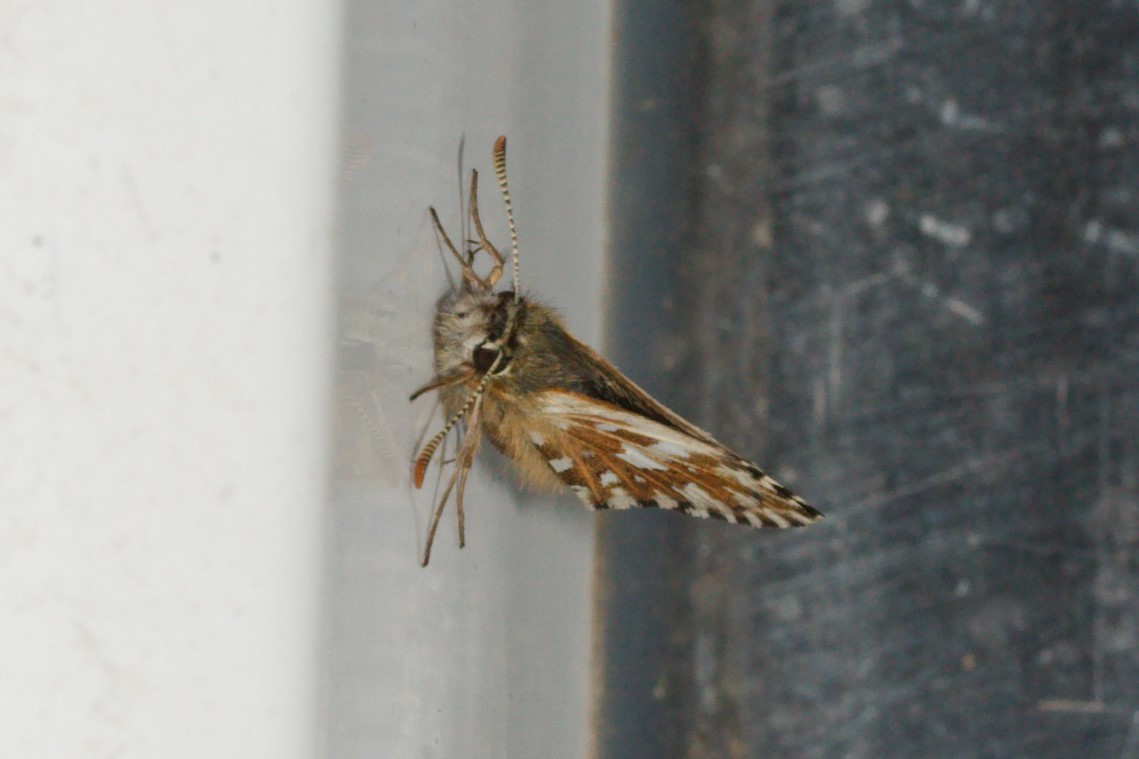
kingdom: Animalia
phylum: Arthropoda
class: Insecta
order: Lepidoptera
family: Hesperiidae
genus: Pyrgus
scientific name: Pyrgus malvae
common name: Grizzled skipper
